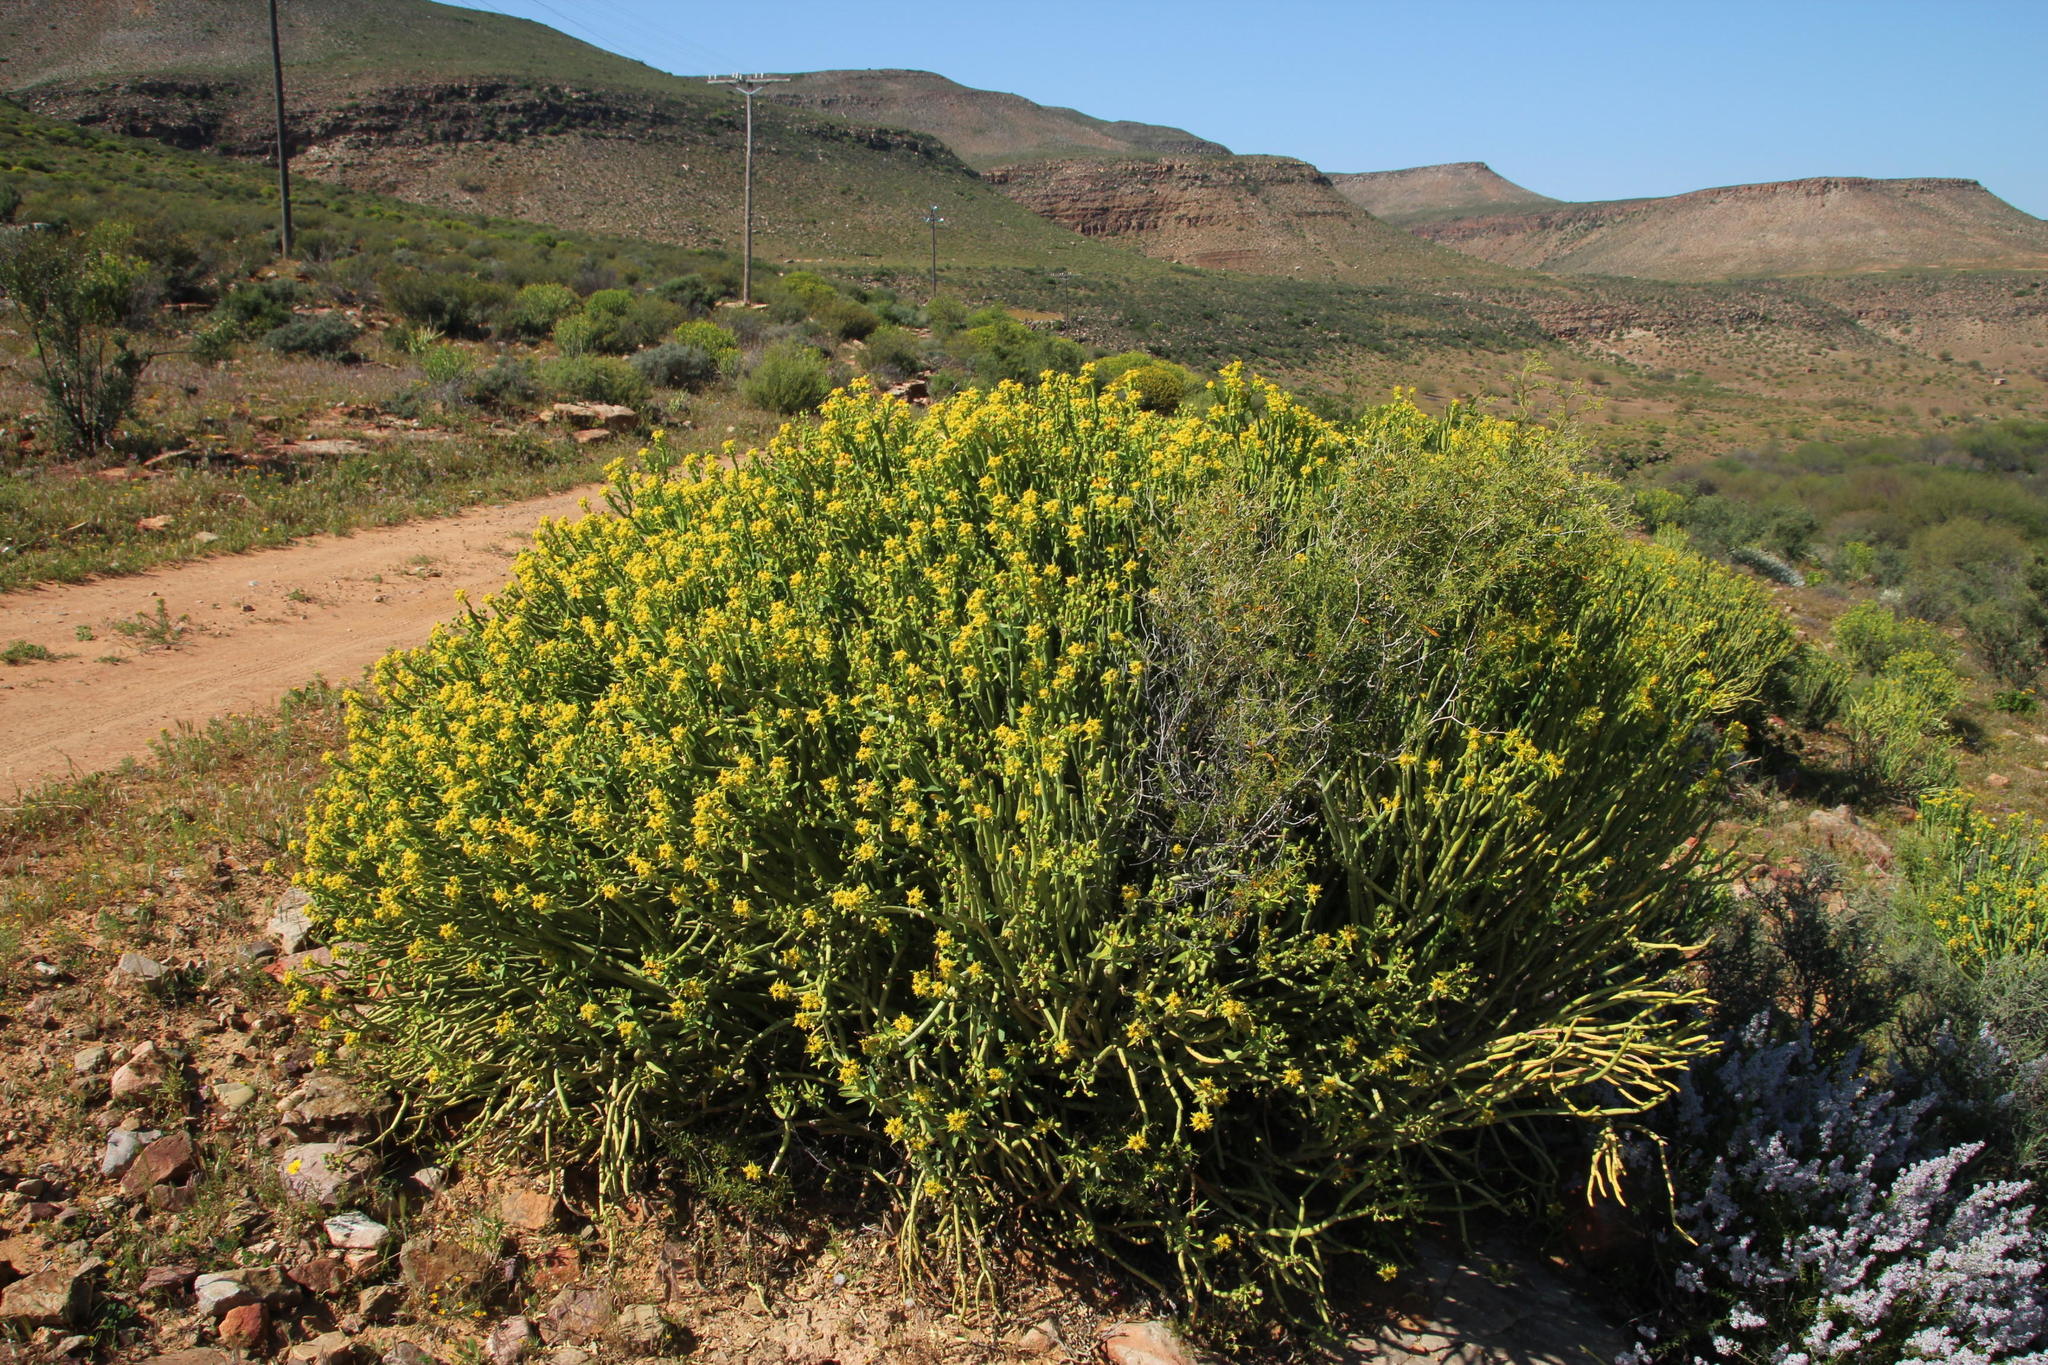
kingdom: Plantae
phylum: Tracheophyta
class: Magnoliopsida
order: Malpighiales
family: Euphorbiaceae
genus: Euphorbia
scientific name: Euphorbia mauritanica
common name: Jackal's-food
